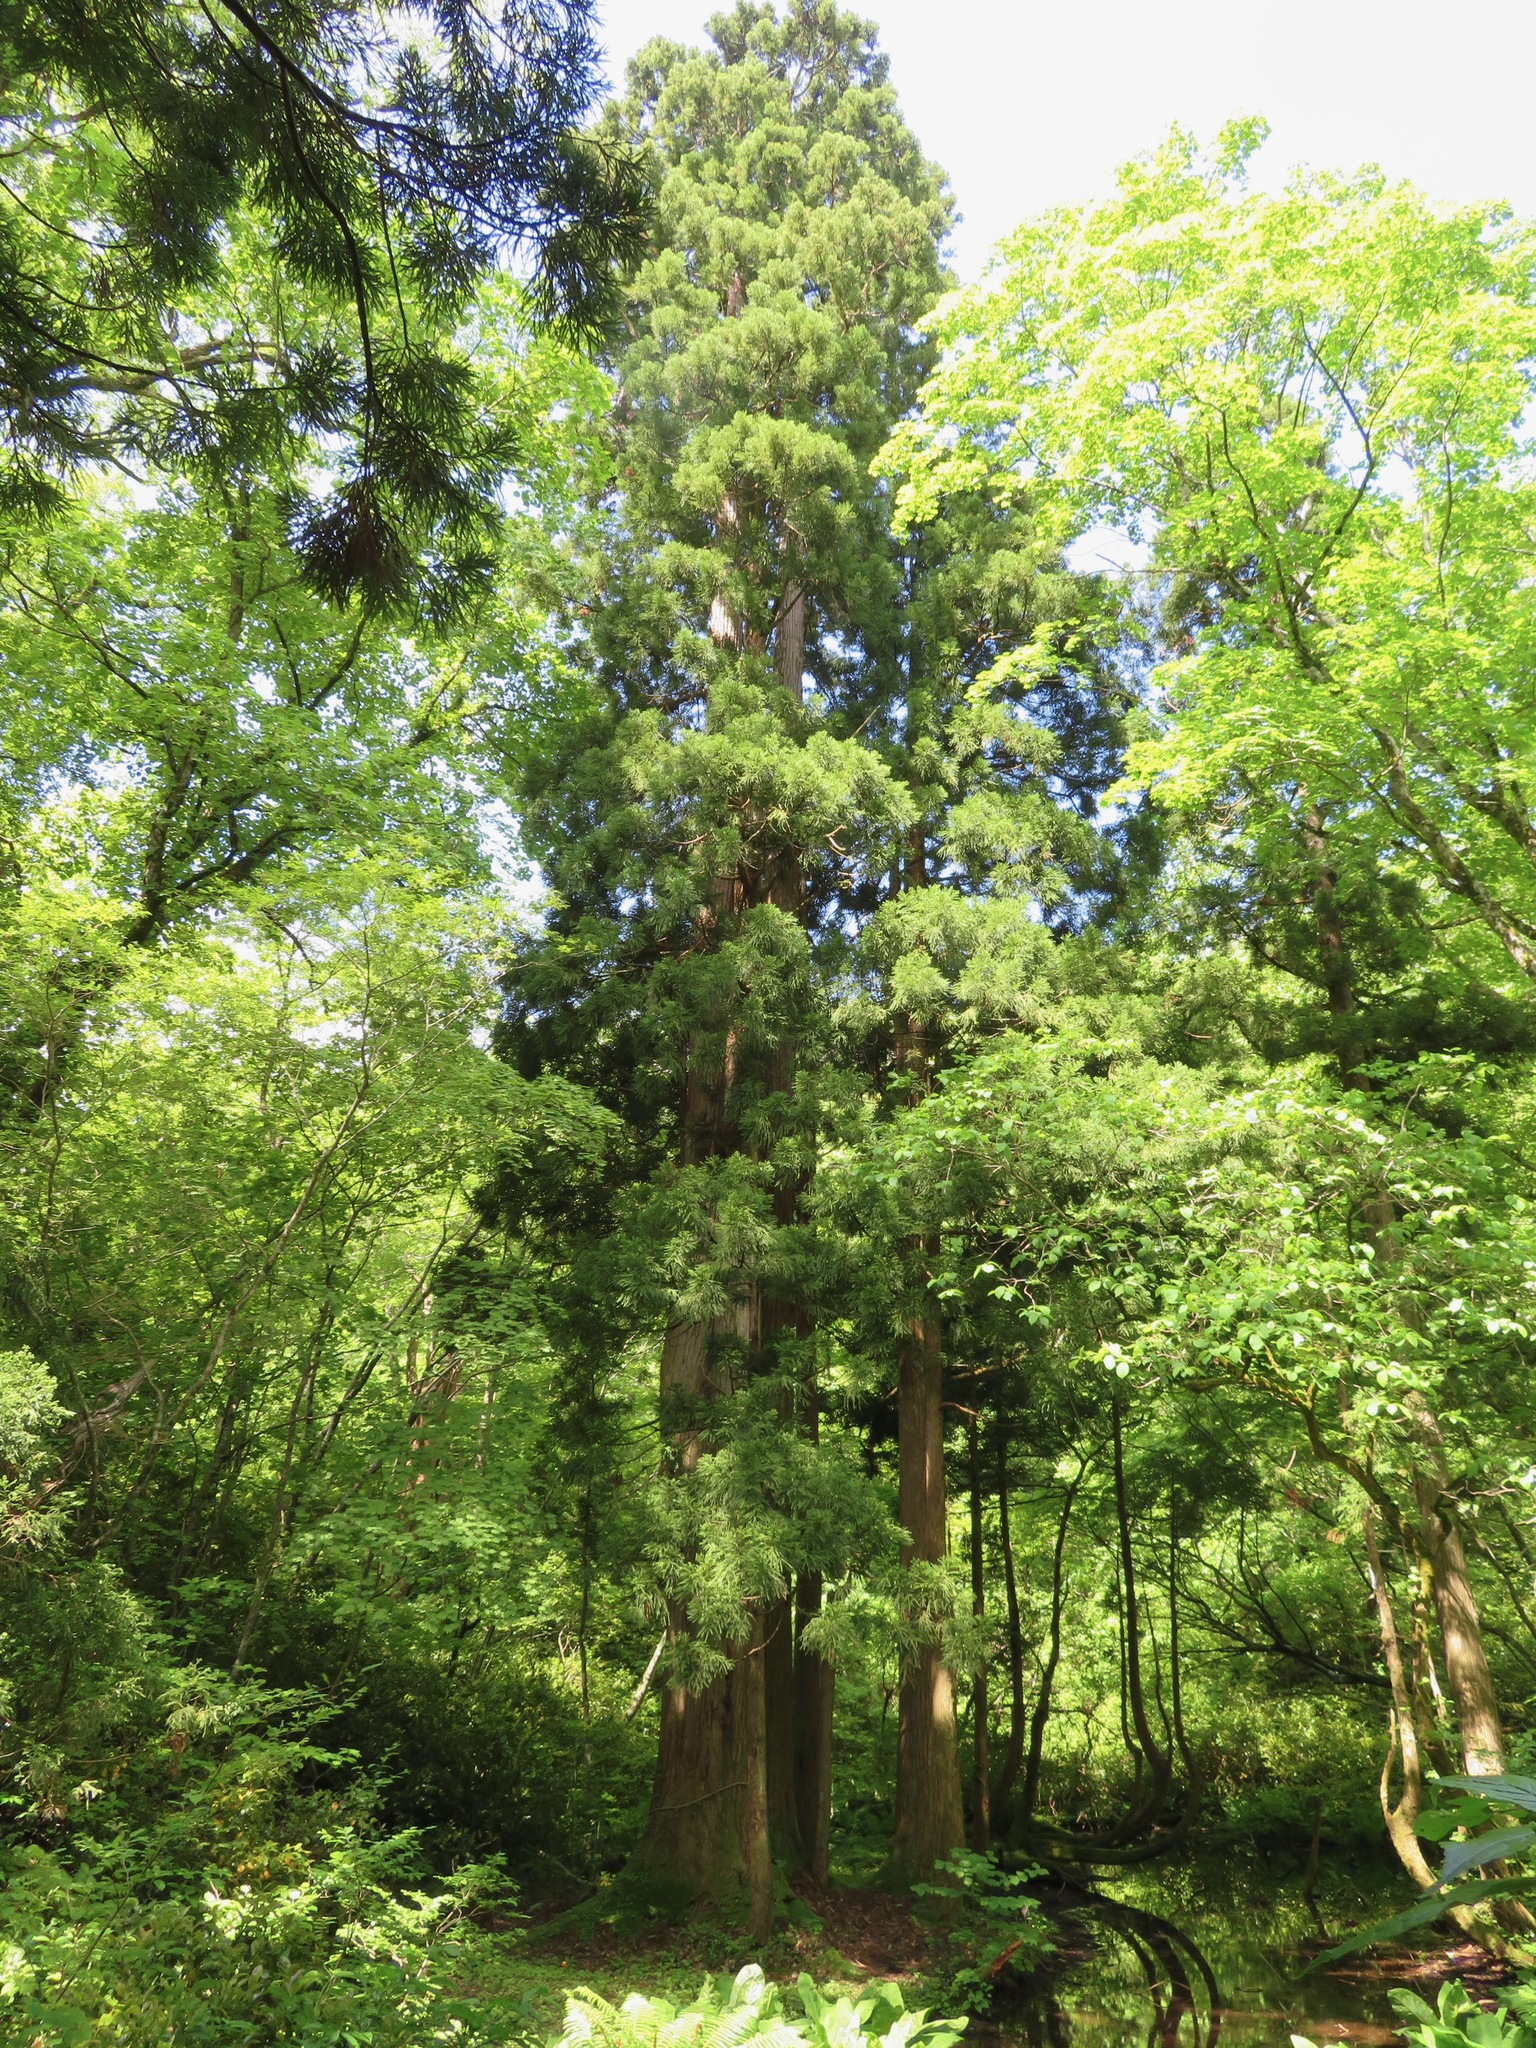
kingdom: Plantae
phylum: Tracheophyta
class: Pinopsida
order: Pinales
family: Cupressaceae
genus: Cryptomeria
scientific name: Cryptomeria japonica
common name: Japanese cedar
